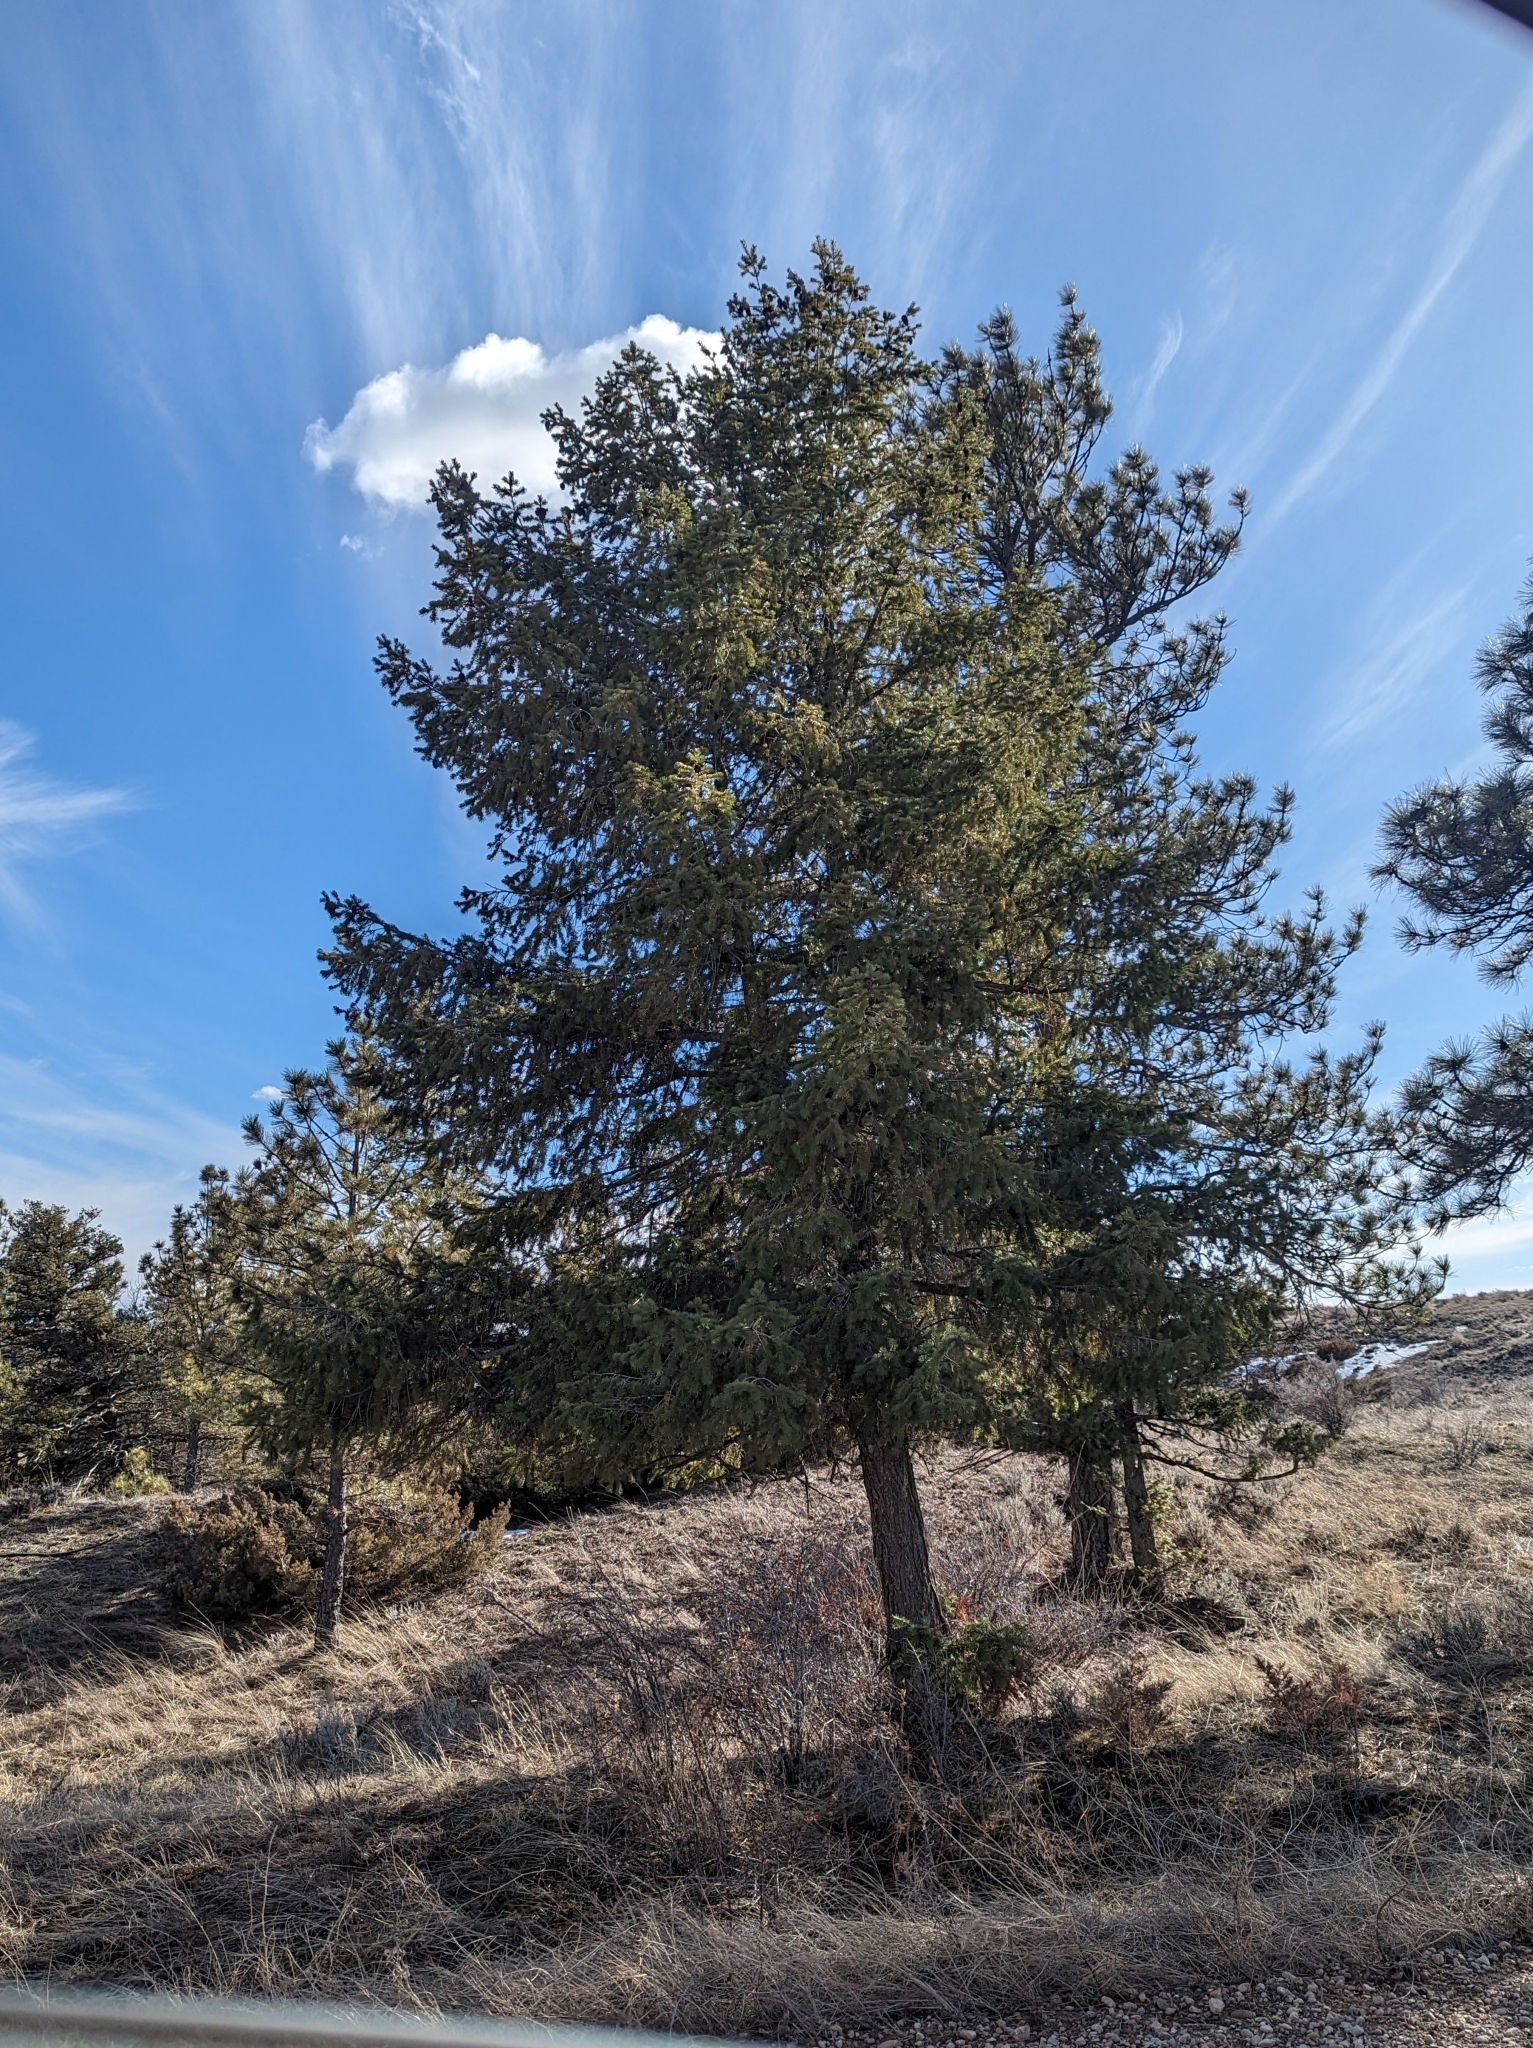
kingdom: Plantae
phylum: Tracheophyta
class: Pinopsida
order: Pinales
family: Pinaceae
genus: Pseudotsuga
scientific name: Pseudotsuga menziesii
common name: Douglas fir
